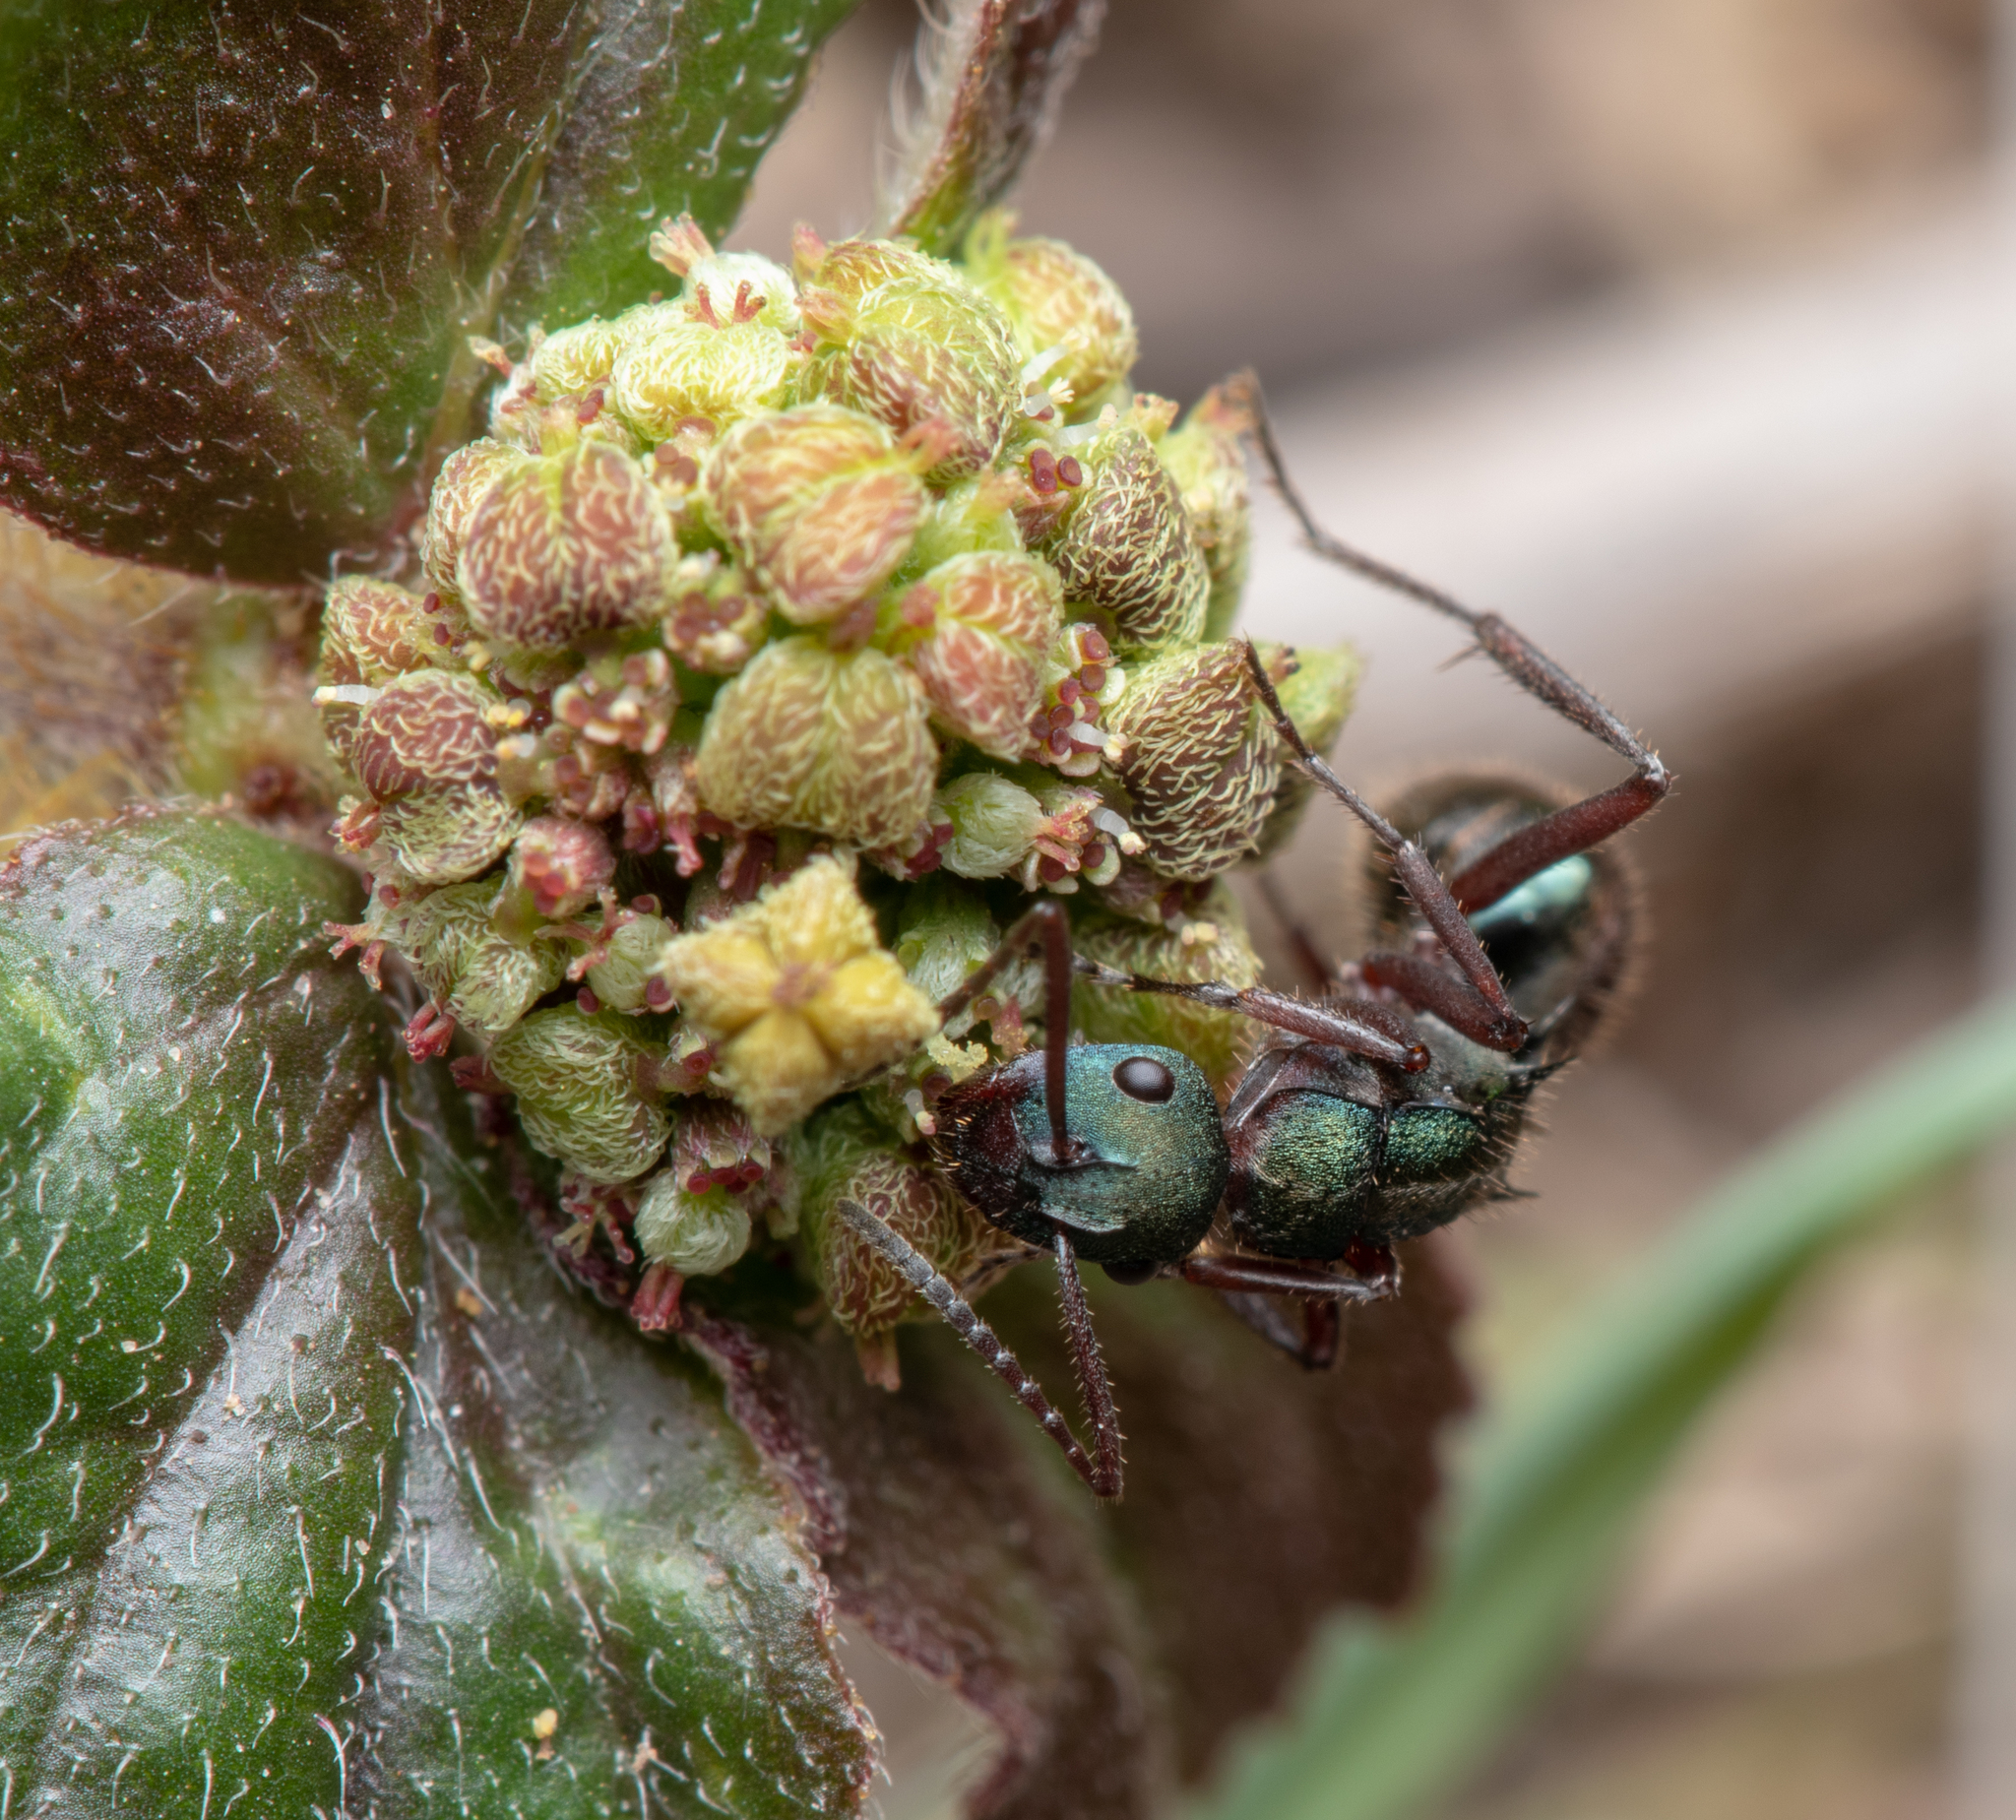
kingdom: Animalia
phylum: Arthropoda
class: Insecta
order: Hymenoptera
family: Formicidae
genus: Polyrhachis
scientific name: Polyrhachis lydiae
